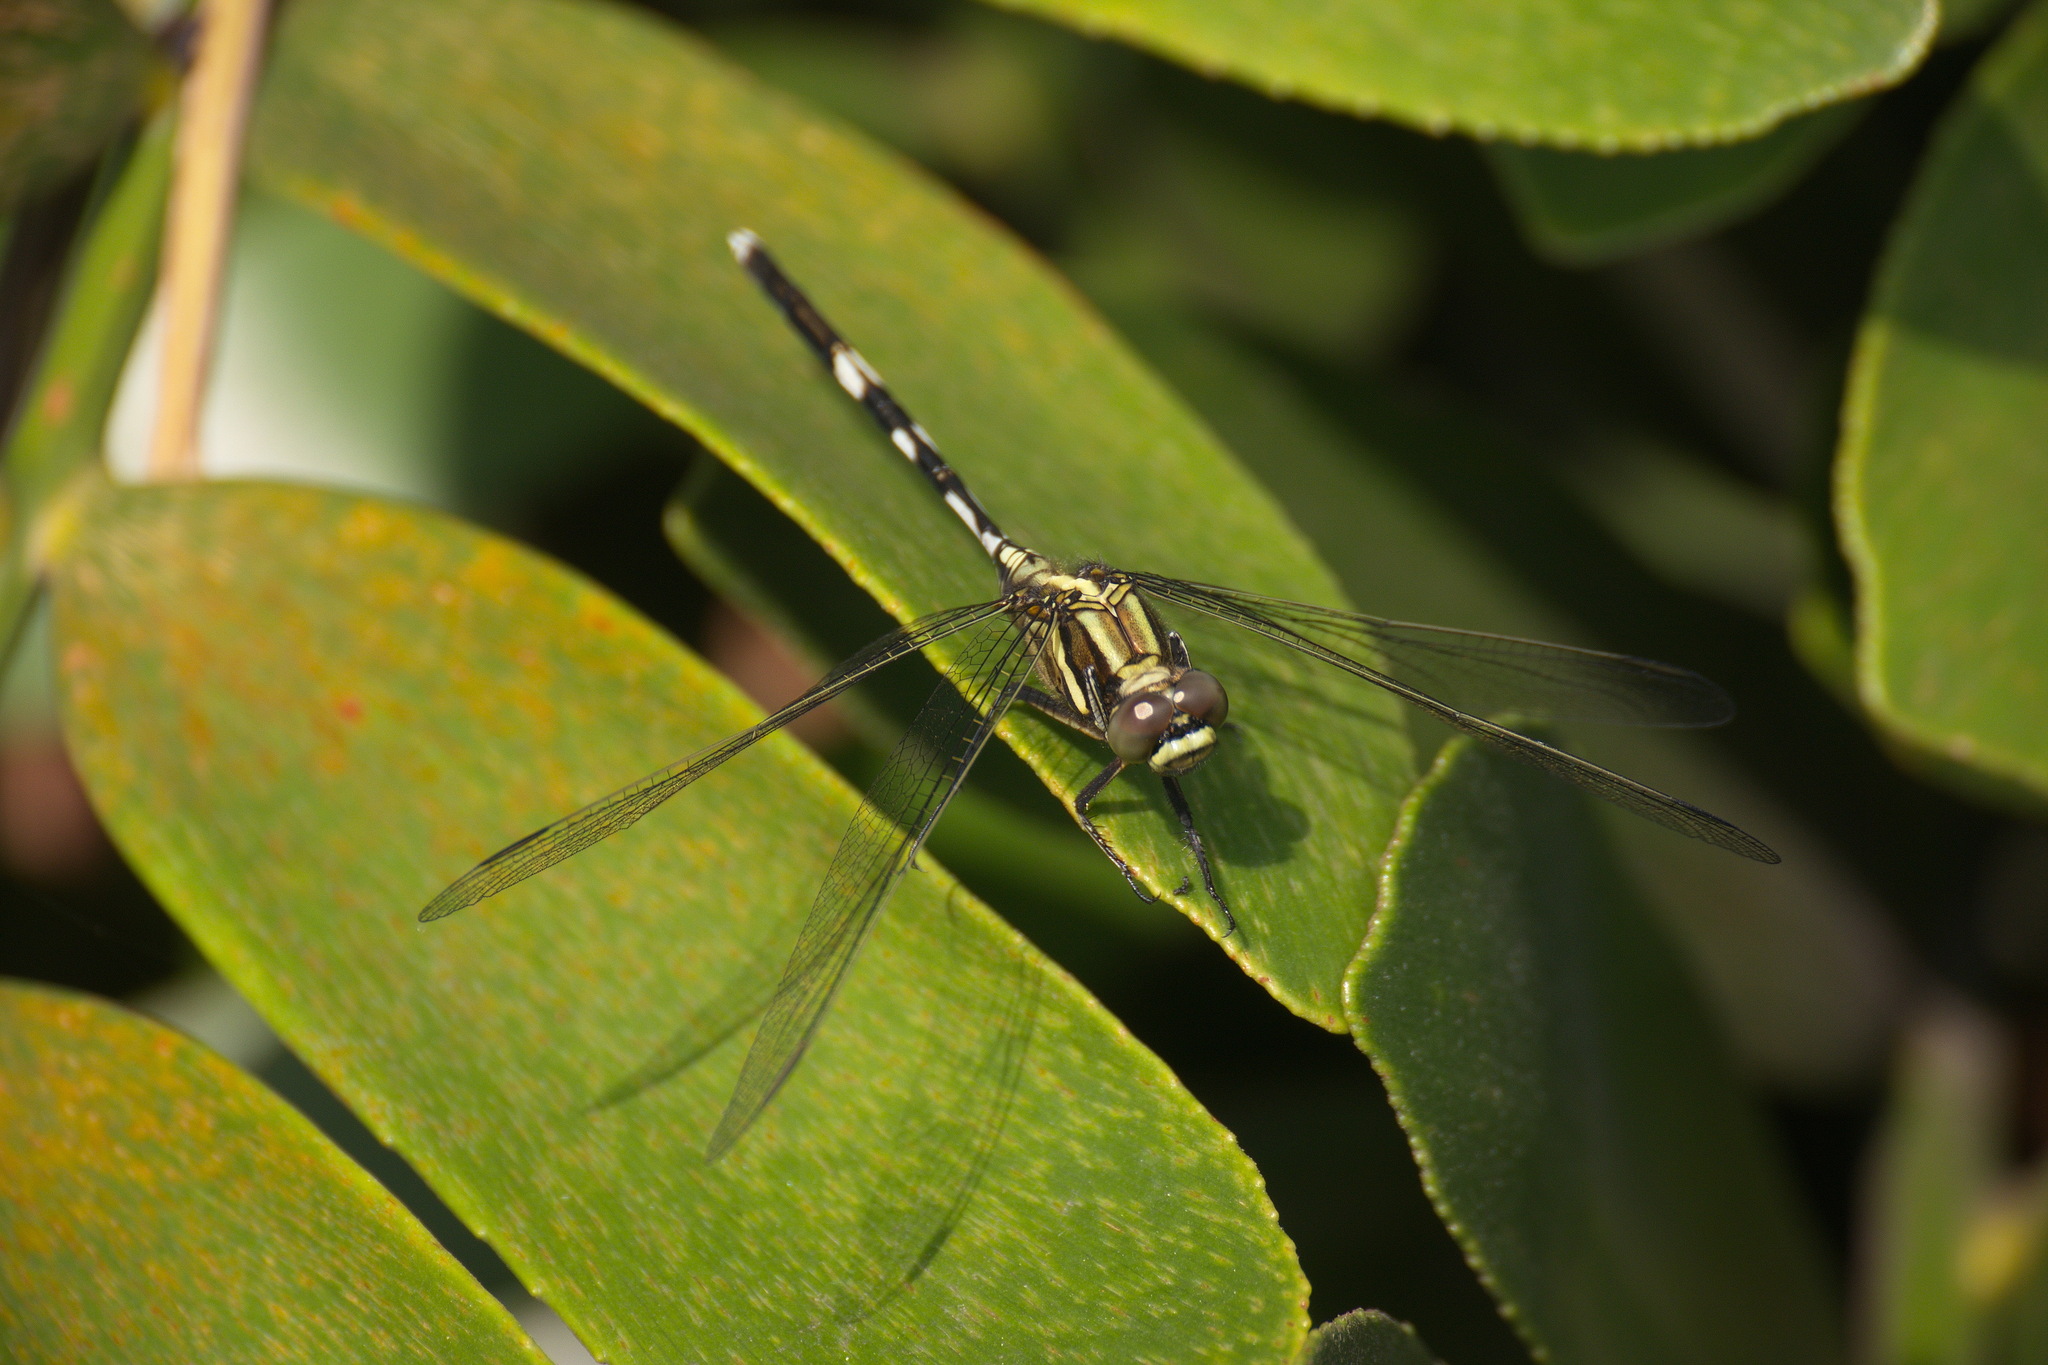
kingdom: Animalia
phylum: Arthropoda
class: Insecta
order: Odonata
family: Libellulidae
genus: Orthetrum
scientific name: Orthetrum sabina
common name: Slender skimmer
